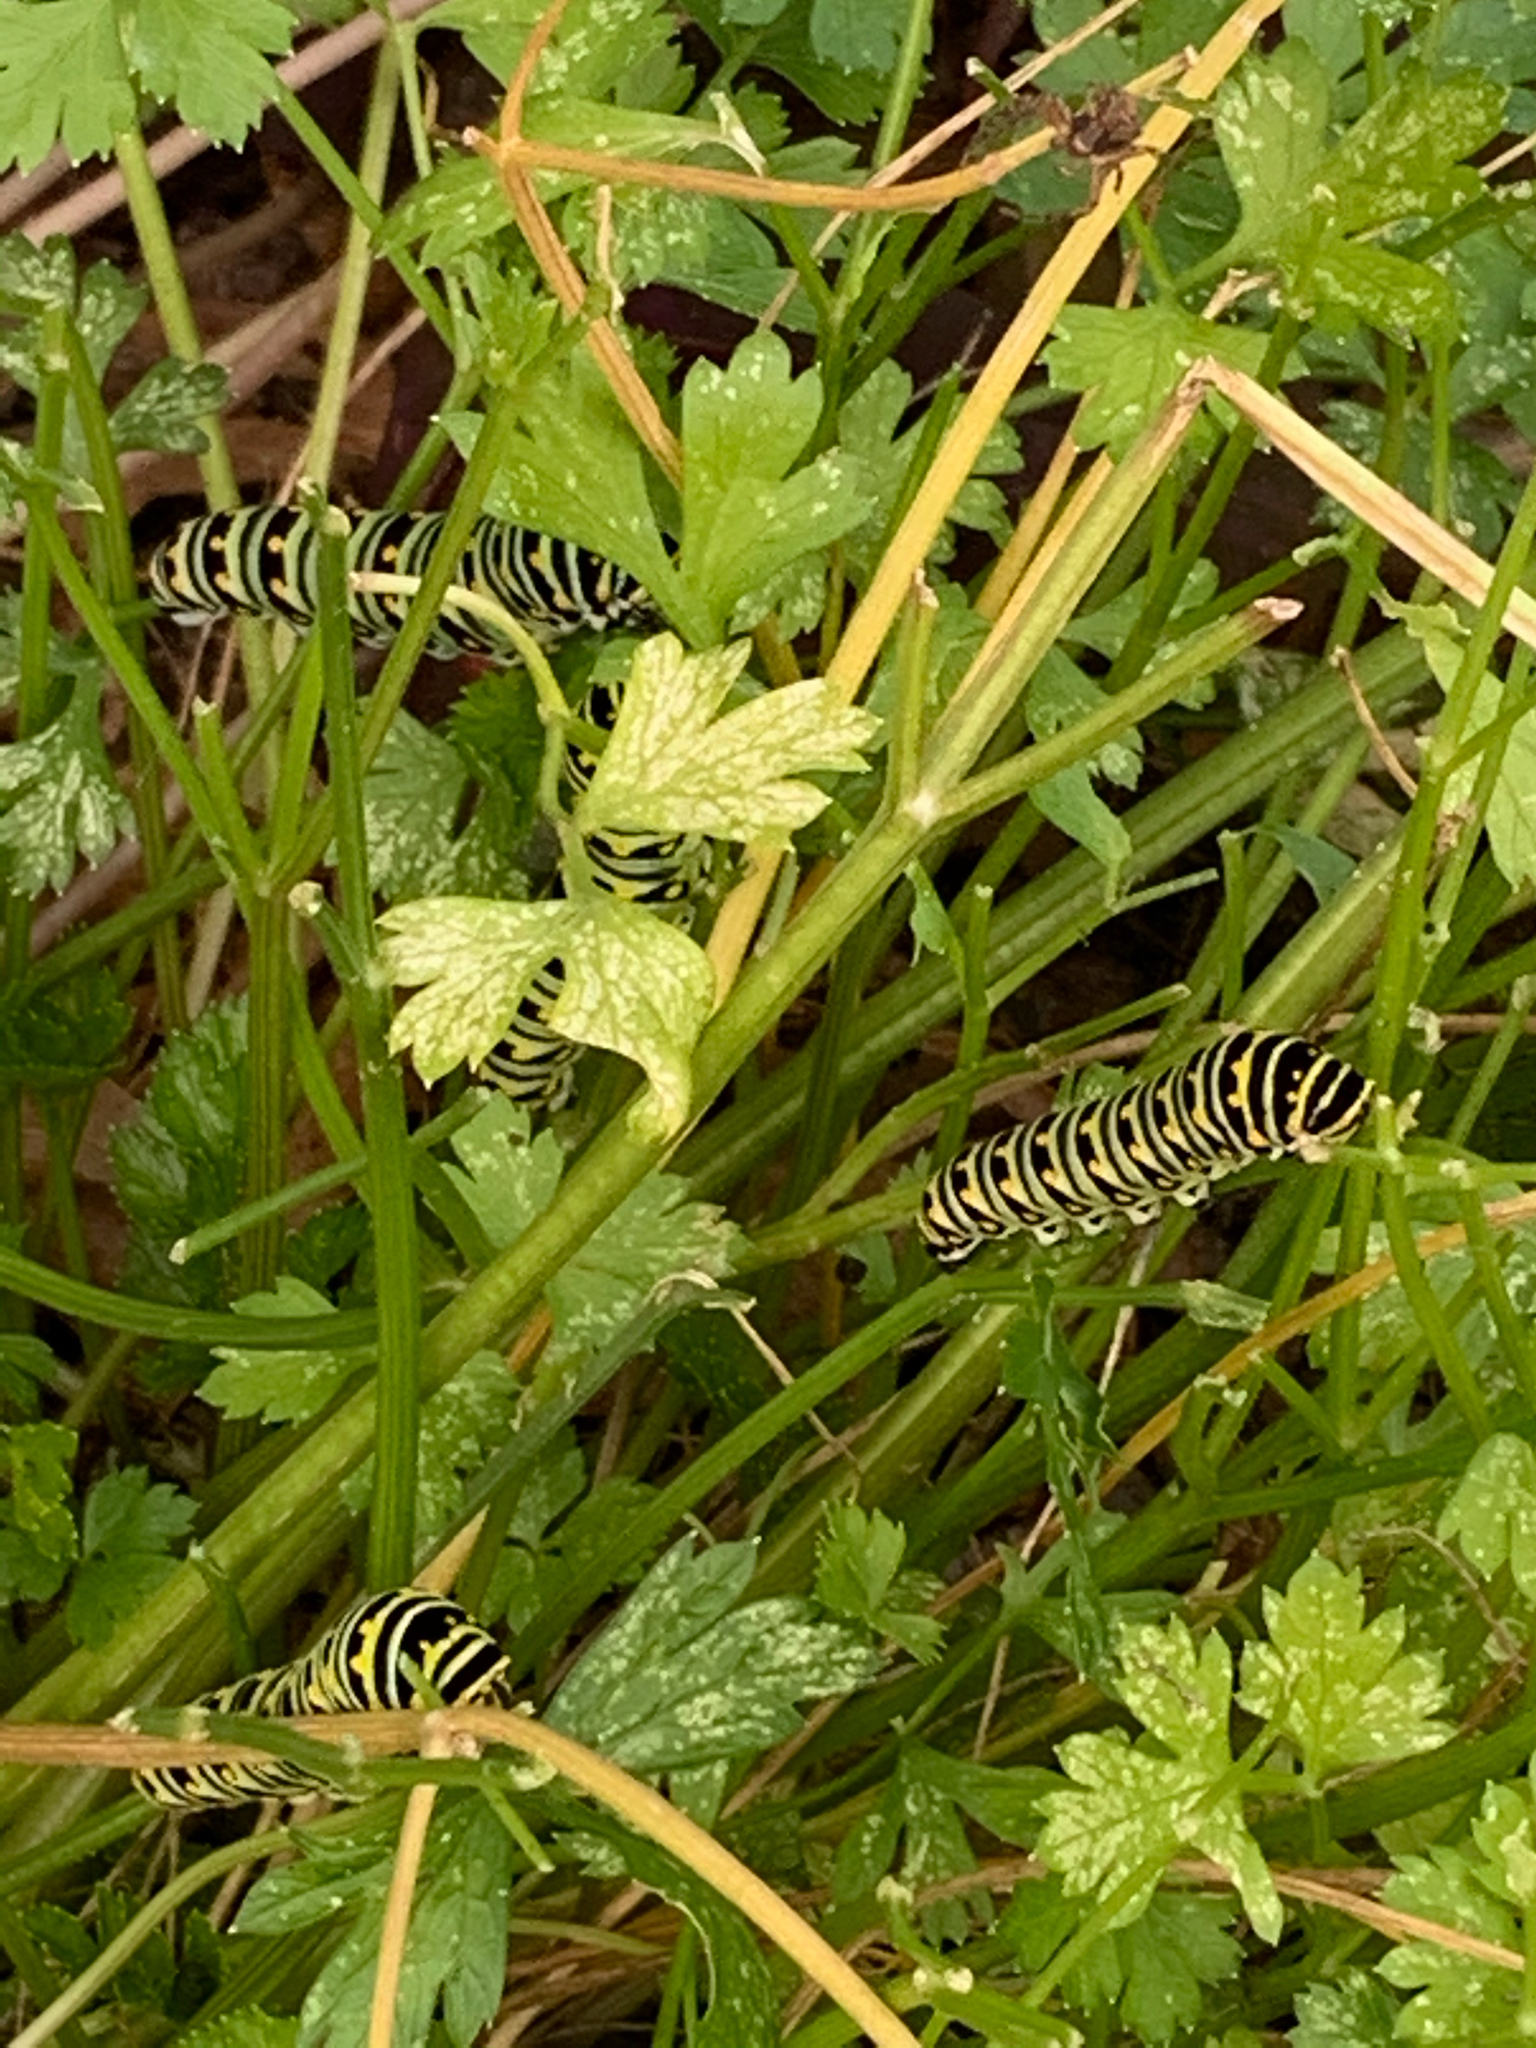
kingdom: Animalia
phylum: Arthropoda
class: Insecta
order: Lepidoptera
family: Papilionidae
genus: Papilio
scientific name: Papilio polyxenes
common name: Black swallowtail
